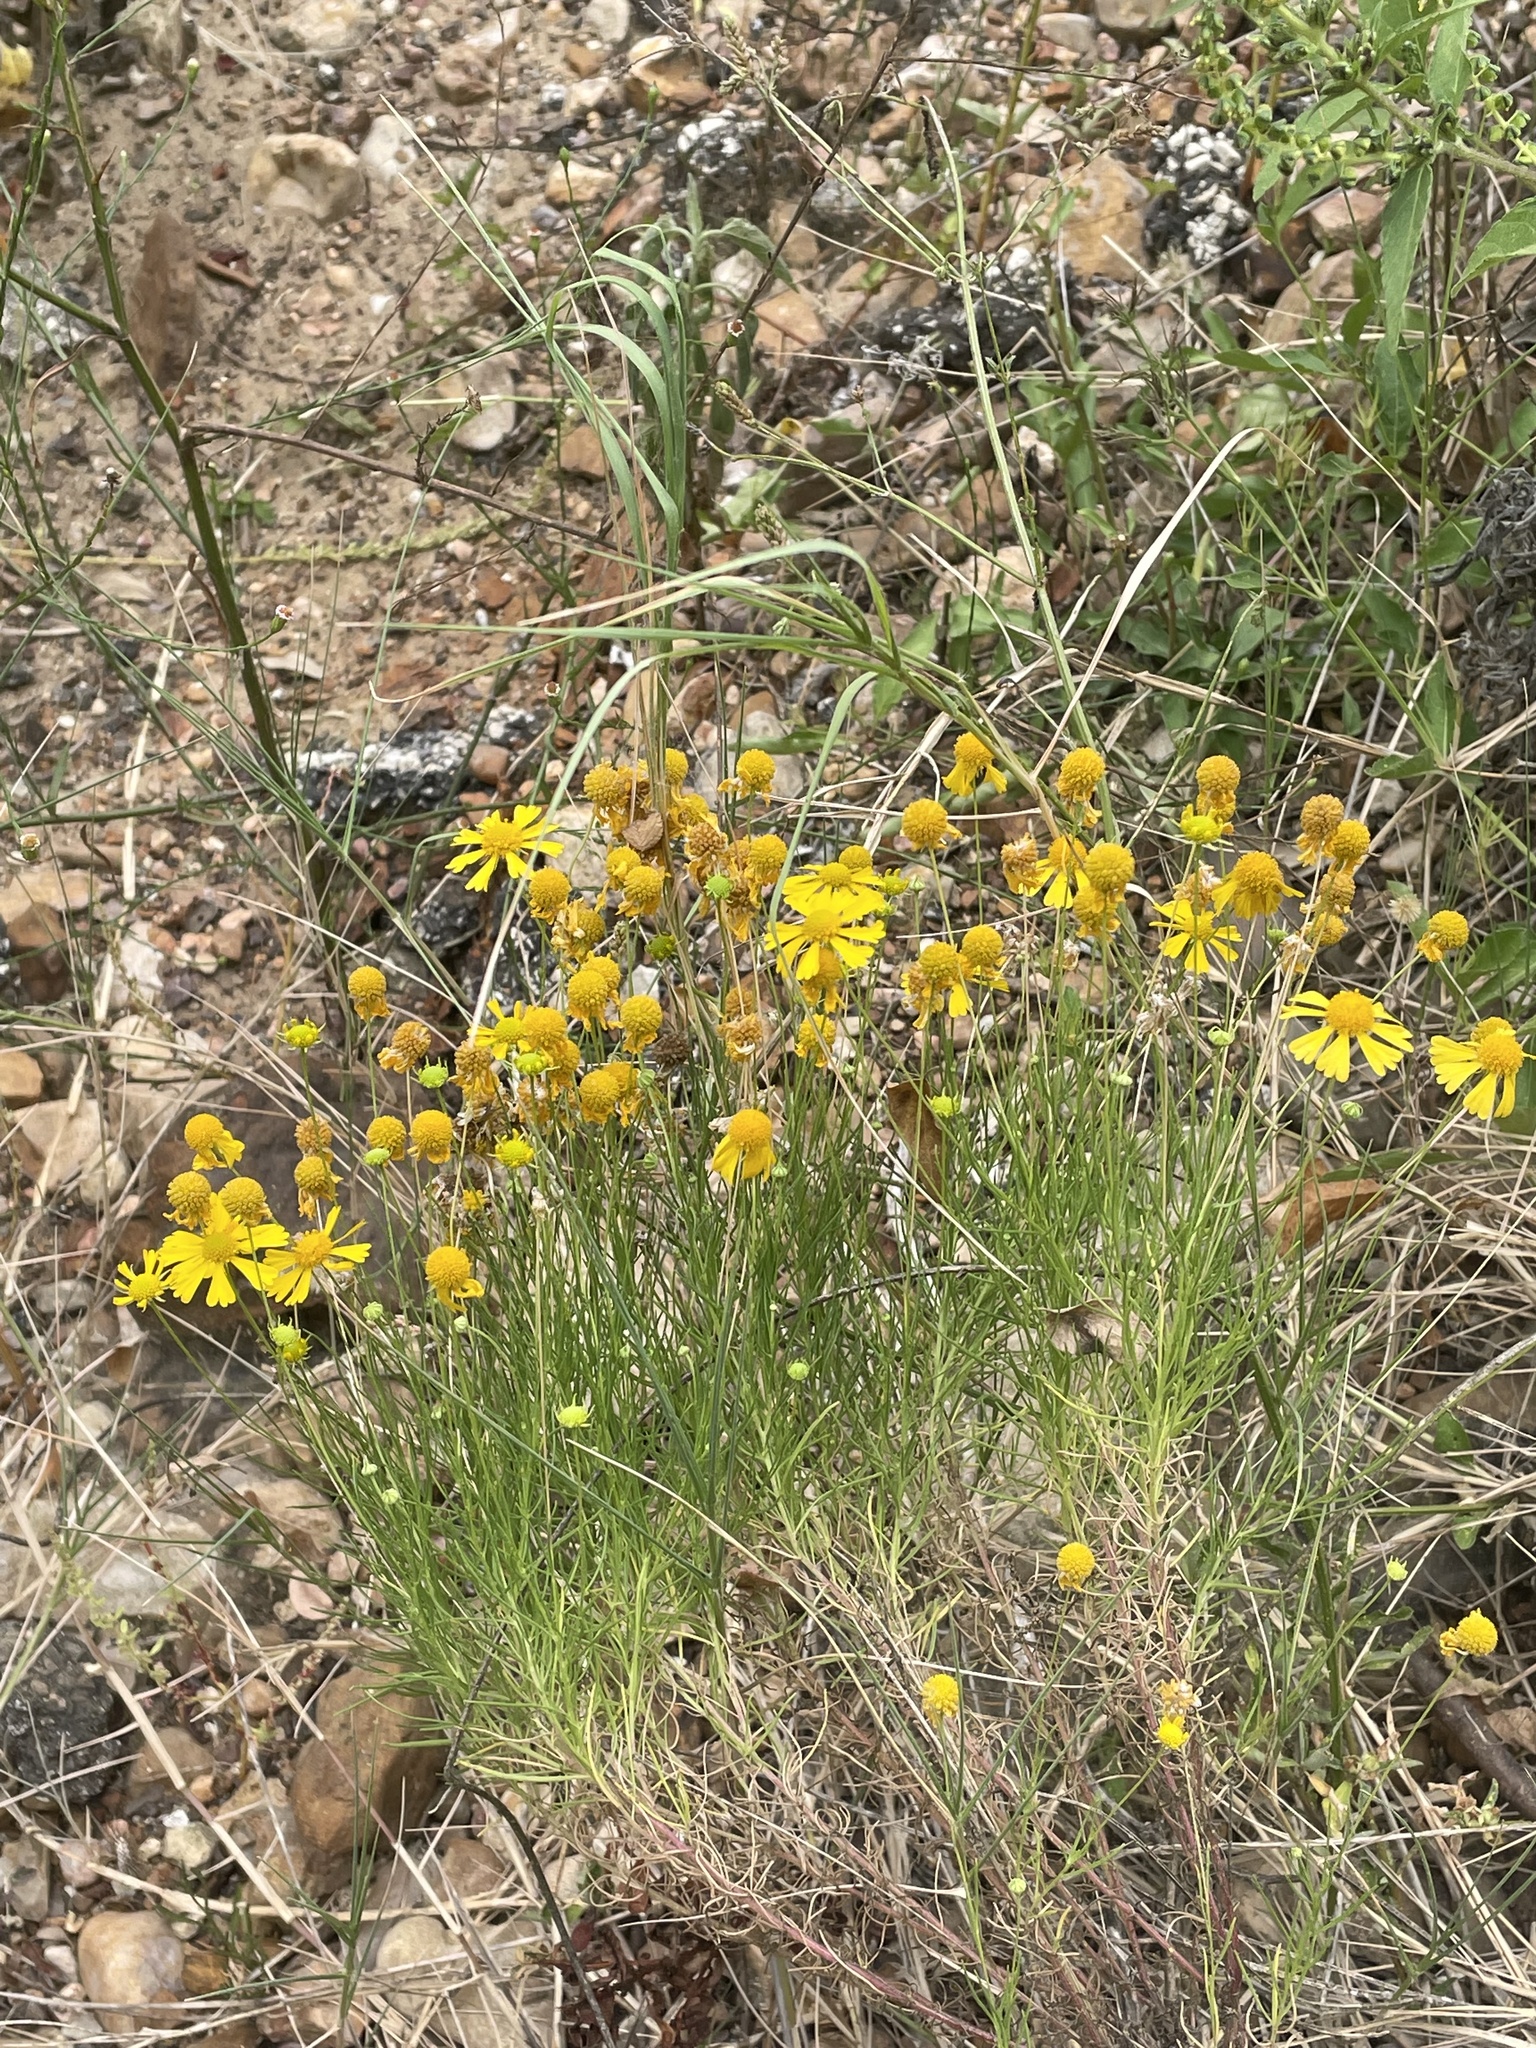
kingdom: Plantae
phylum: Tracheophyta
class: Magnoliopsida
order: Asterales
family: Asteraceae
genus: Helenium
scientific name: Helenium amarum
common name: Bitter sneezeweed
